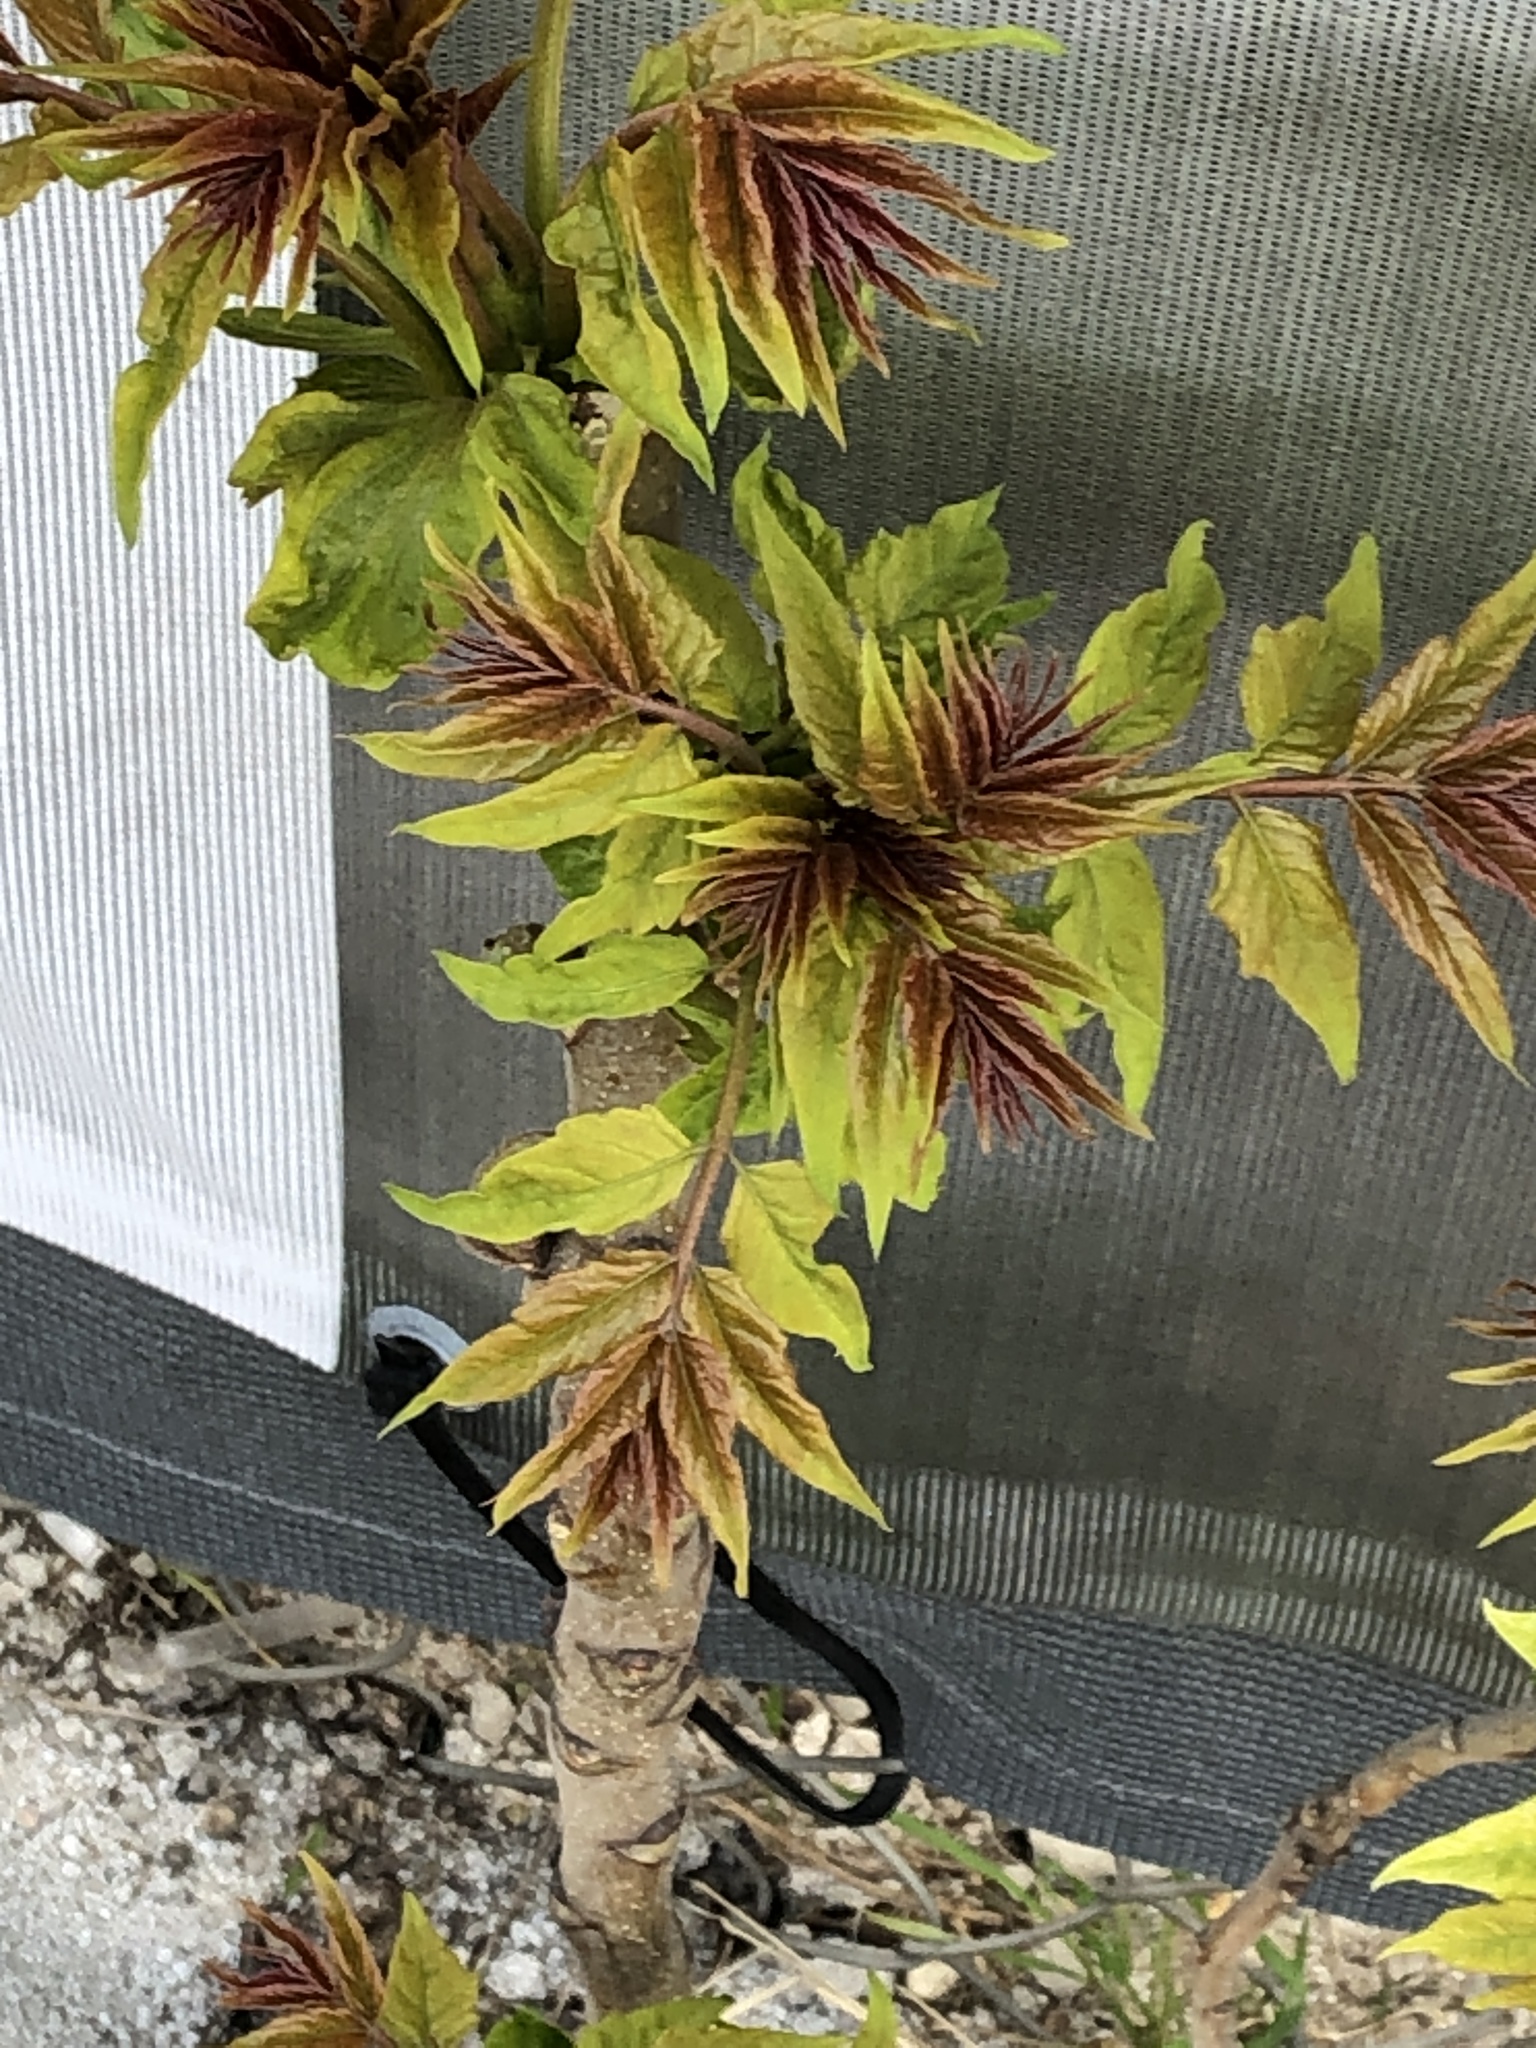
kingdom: Plantae
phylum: Tracheophyta
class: Magnoliopsida
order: Sapindales
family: Simaroubaceae
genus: Ailanthus
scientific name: Ailanthus altissima
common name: Tree-of-heaven
